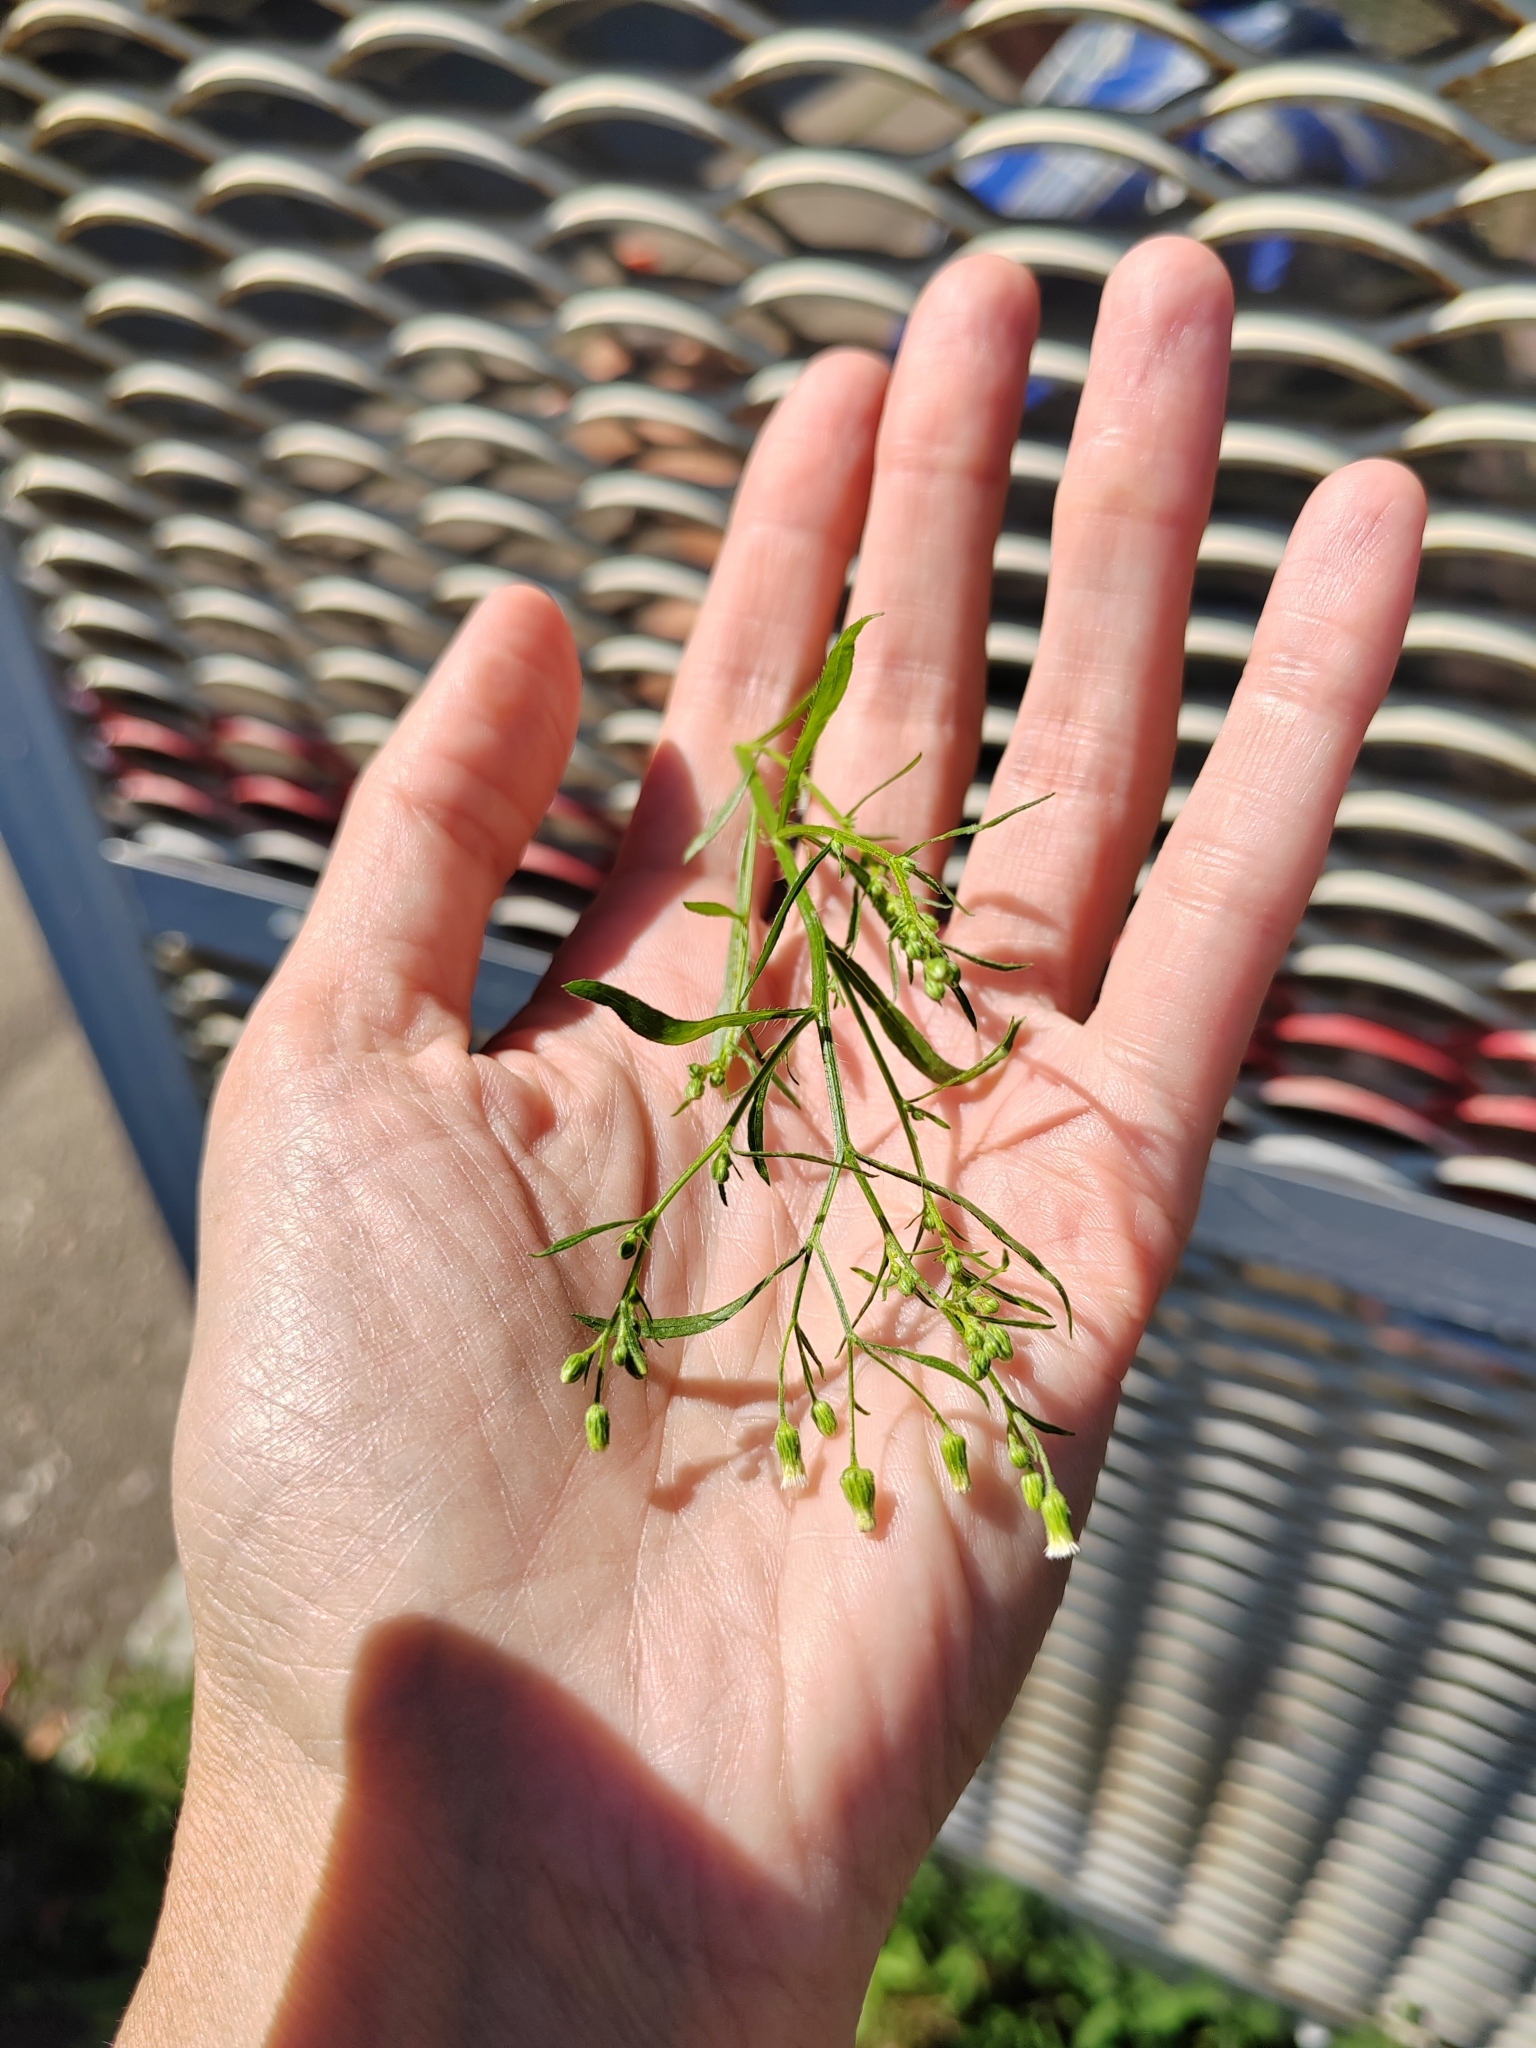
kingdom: Plantae
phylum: Tracheophyta
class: Magnoliopsida
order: Asterales
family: Asteraceae
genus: Erigeron
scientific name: Erigeron canadensis
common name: Canadian fleabane
